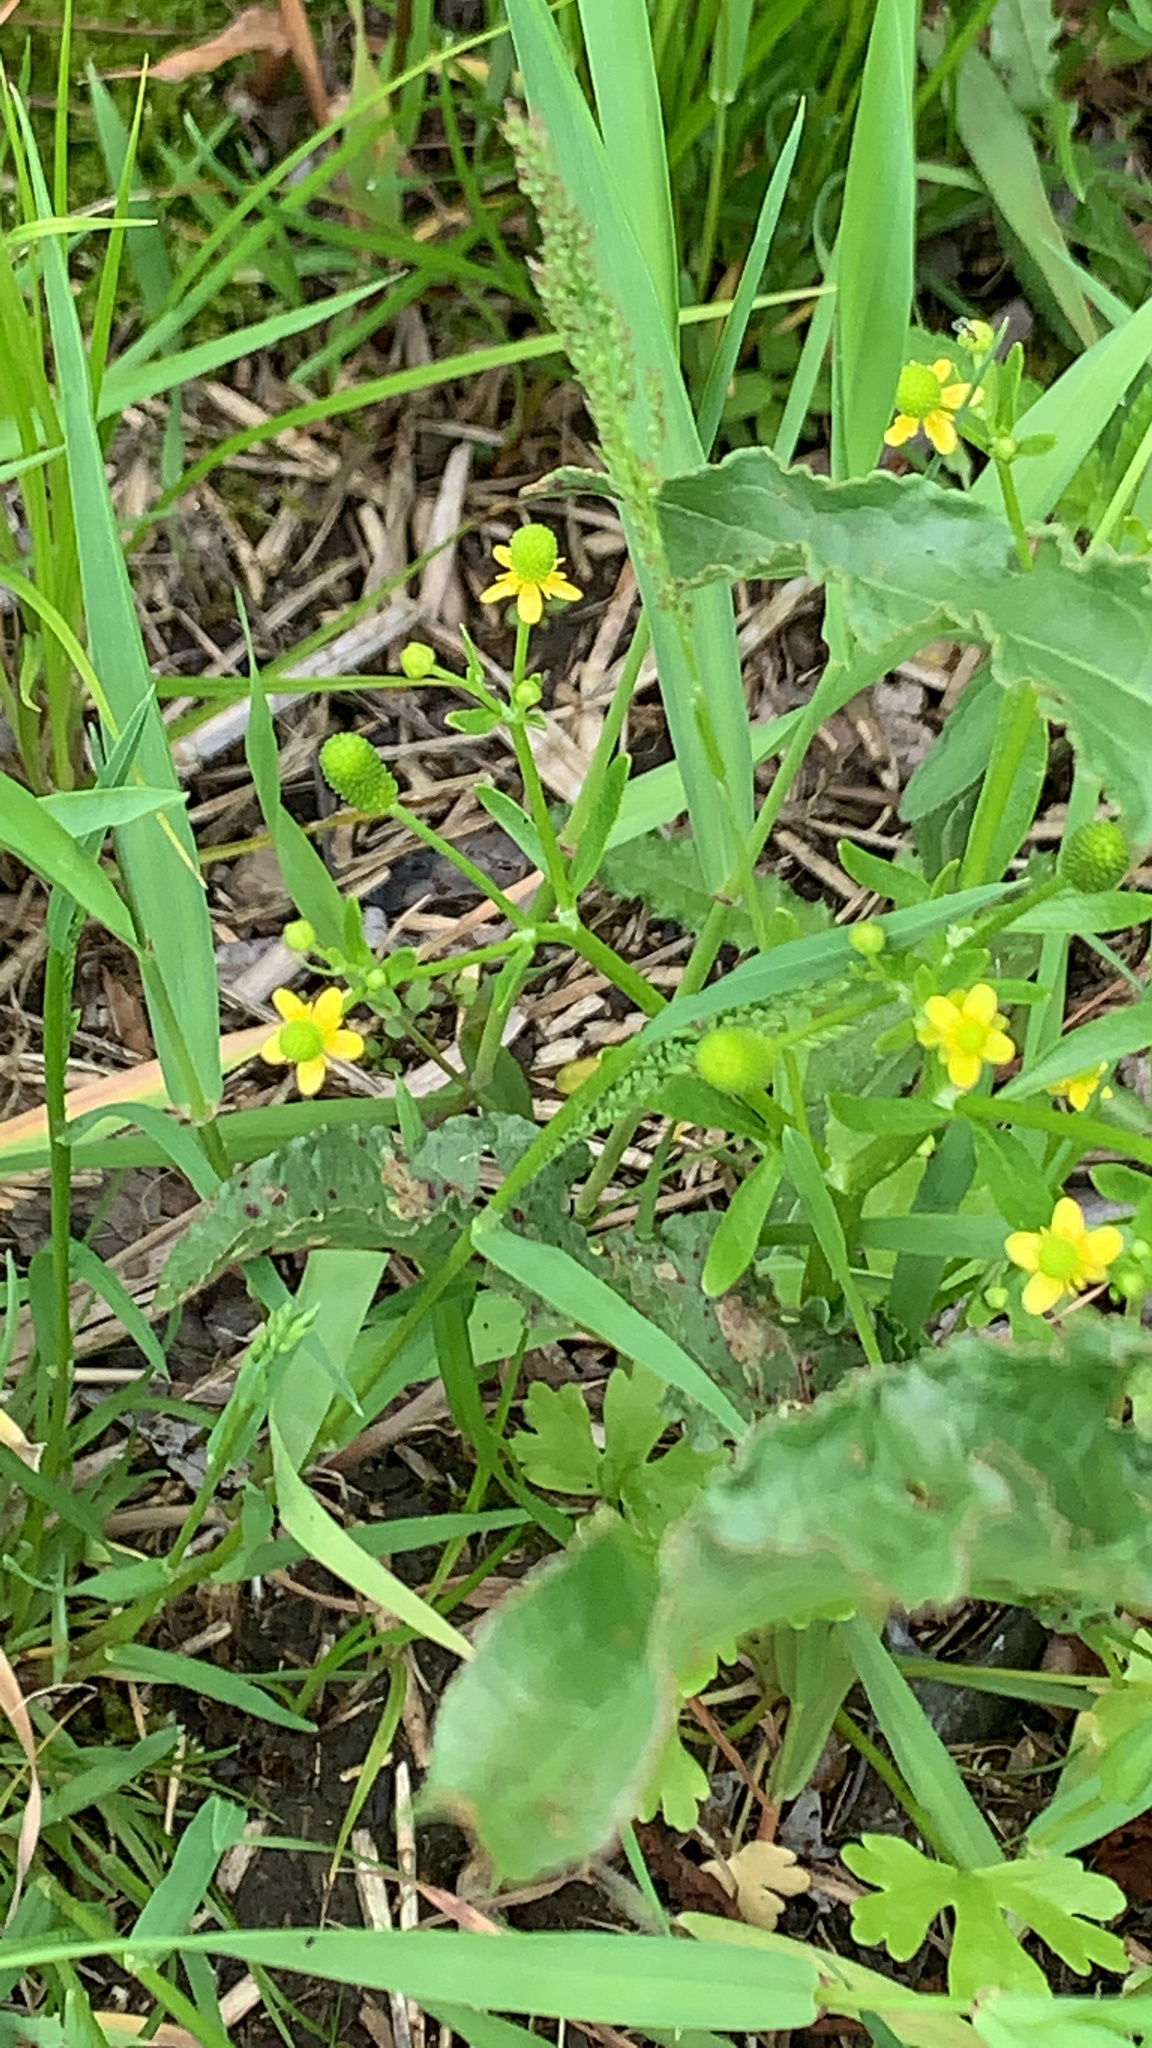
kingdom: Plantae
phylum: Tracheophyta
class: Magnoliopsida
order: Ranunculales
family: Ranunculaceae
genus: Ranunculus
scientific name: Ranunculus sceleratus
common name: Celery-leaved buttercup
